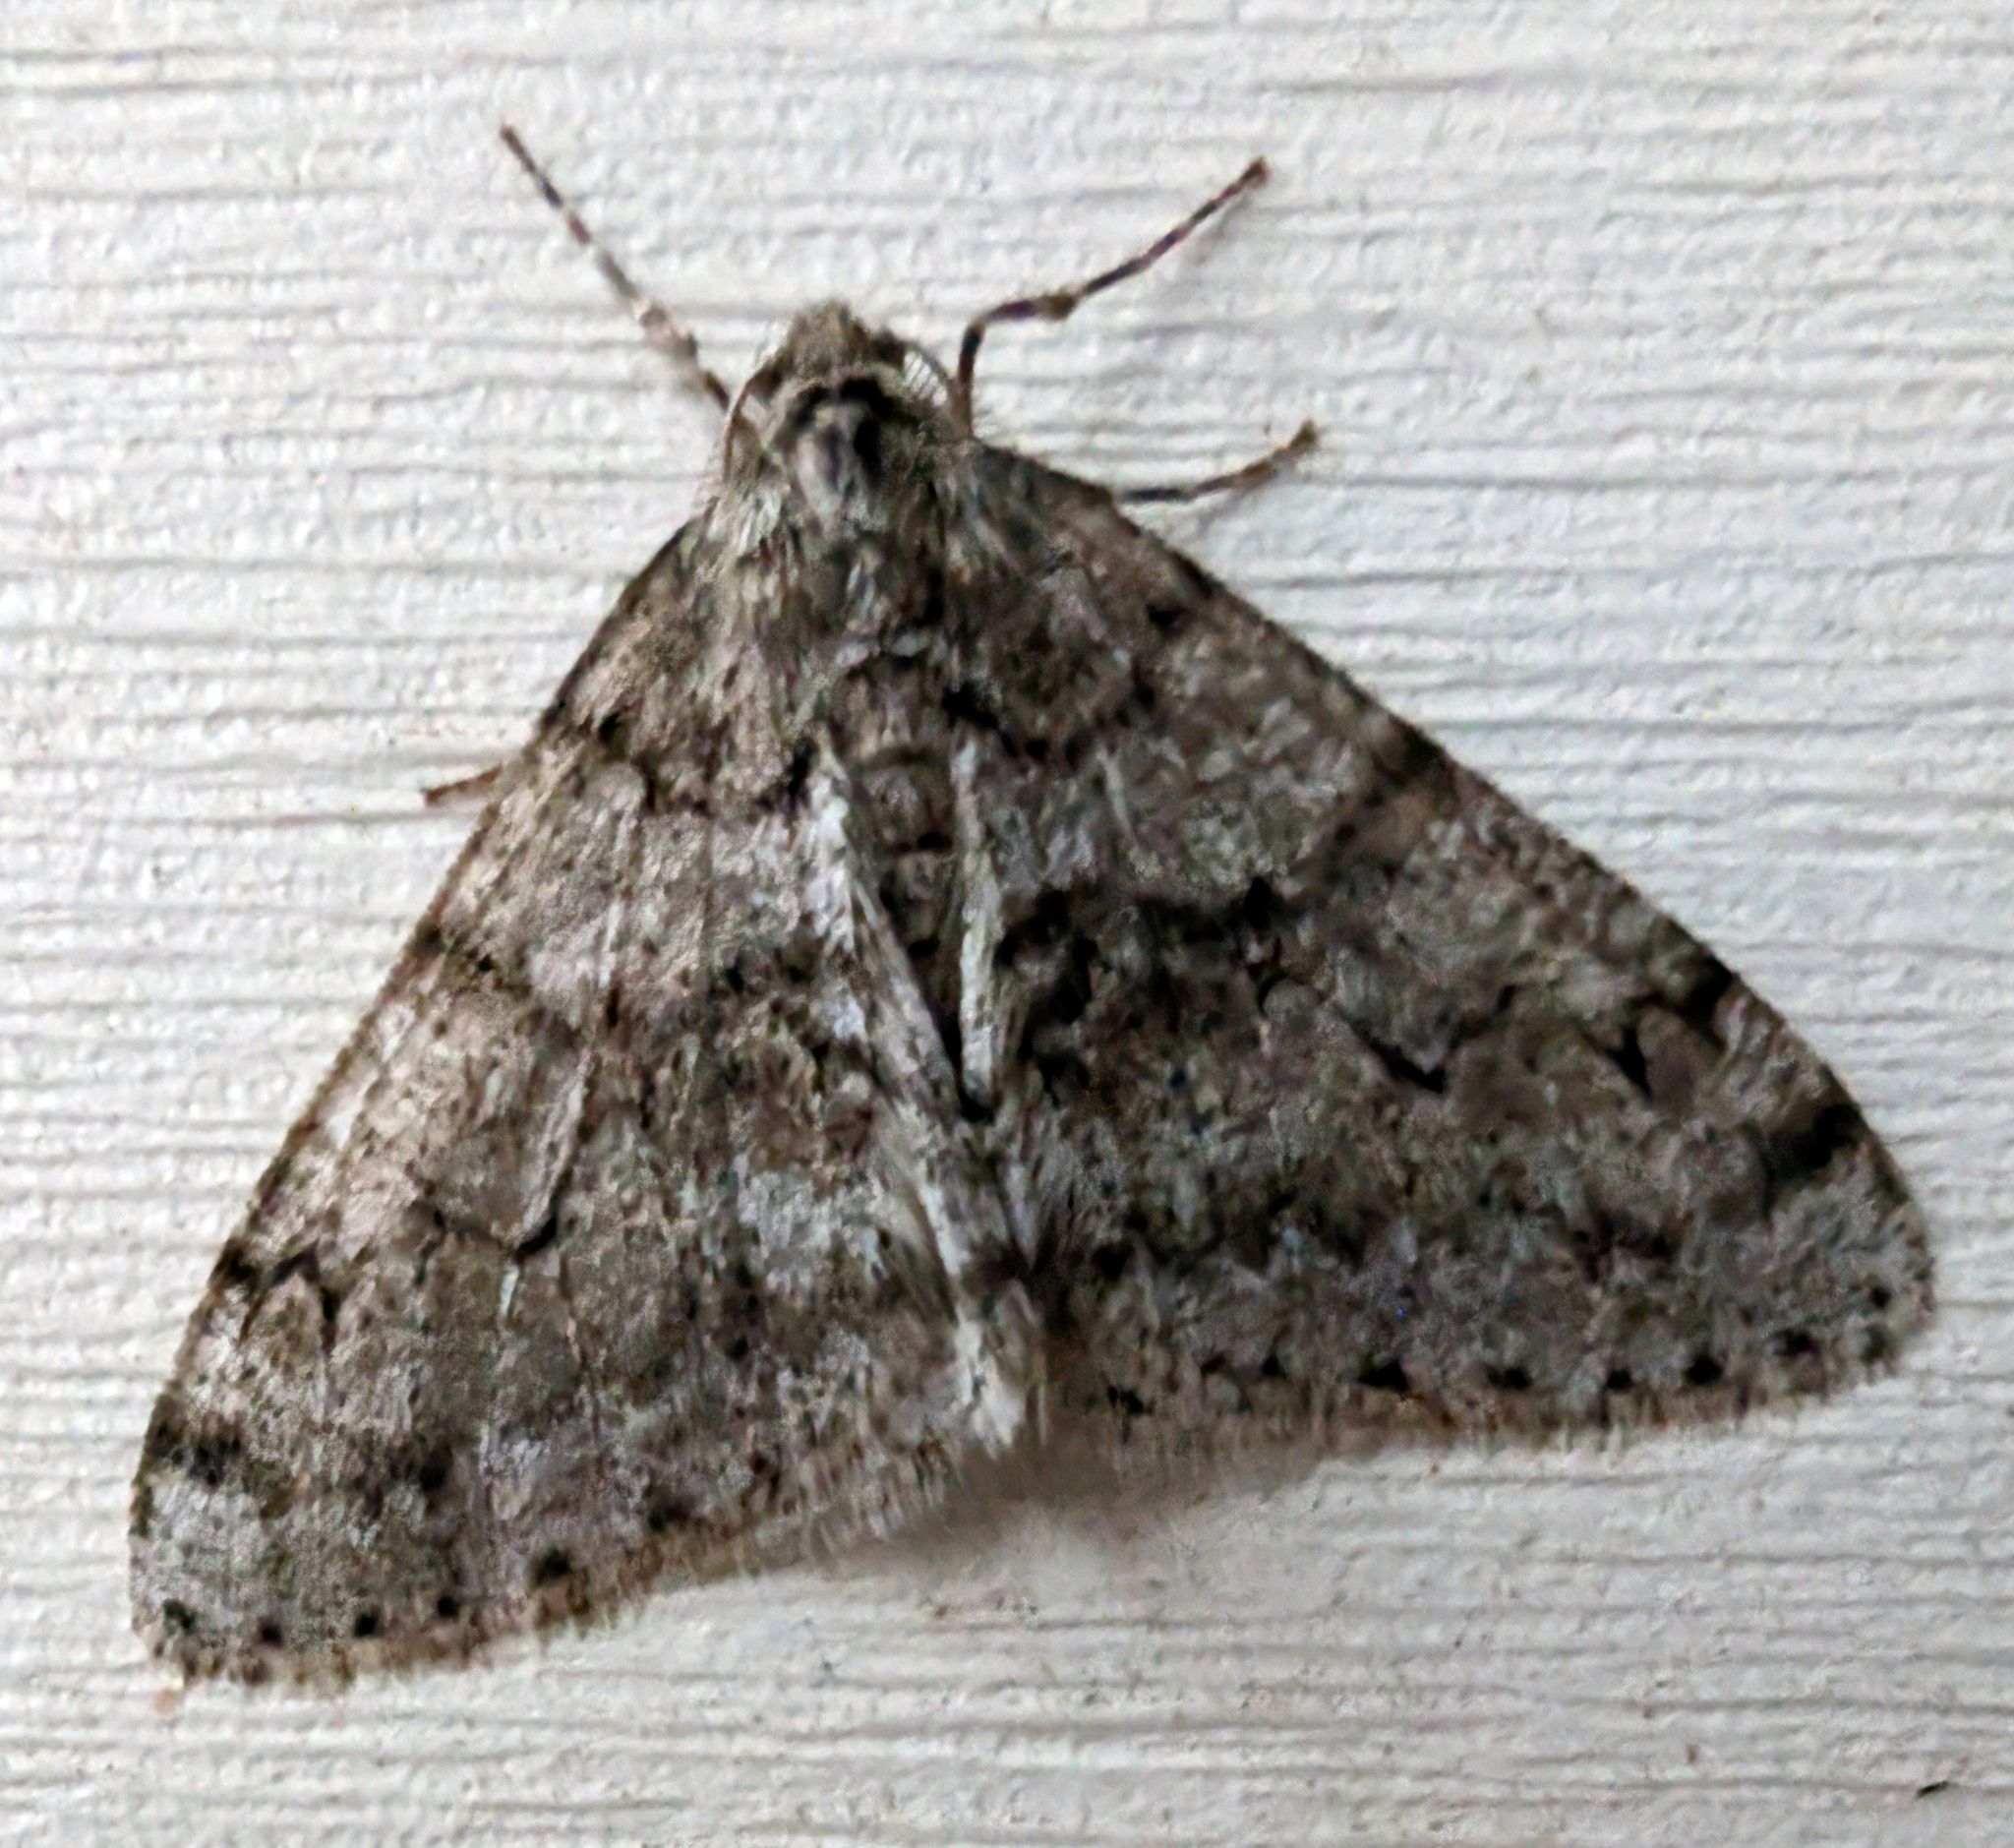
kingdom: Animalia
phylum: Arthropoda
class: Insecta
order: Lepidoptera
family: Geometridae
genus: Phigalia
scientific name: Phigalia denticulata
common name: Toothed phigalia
